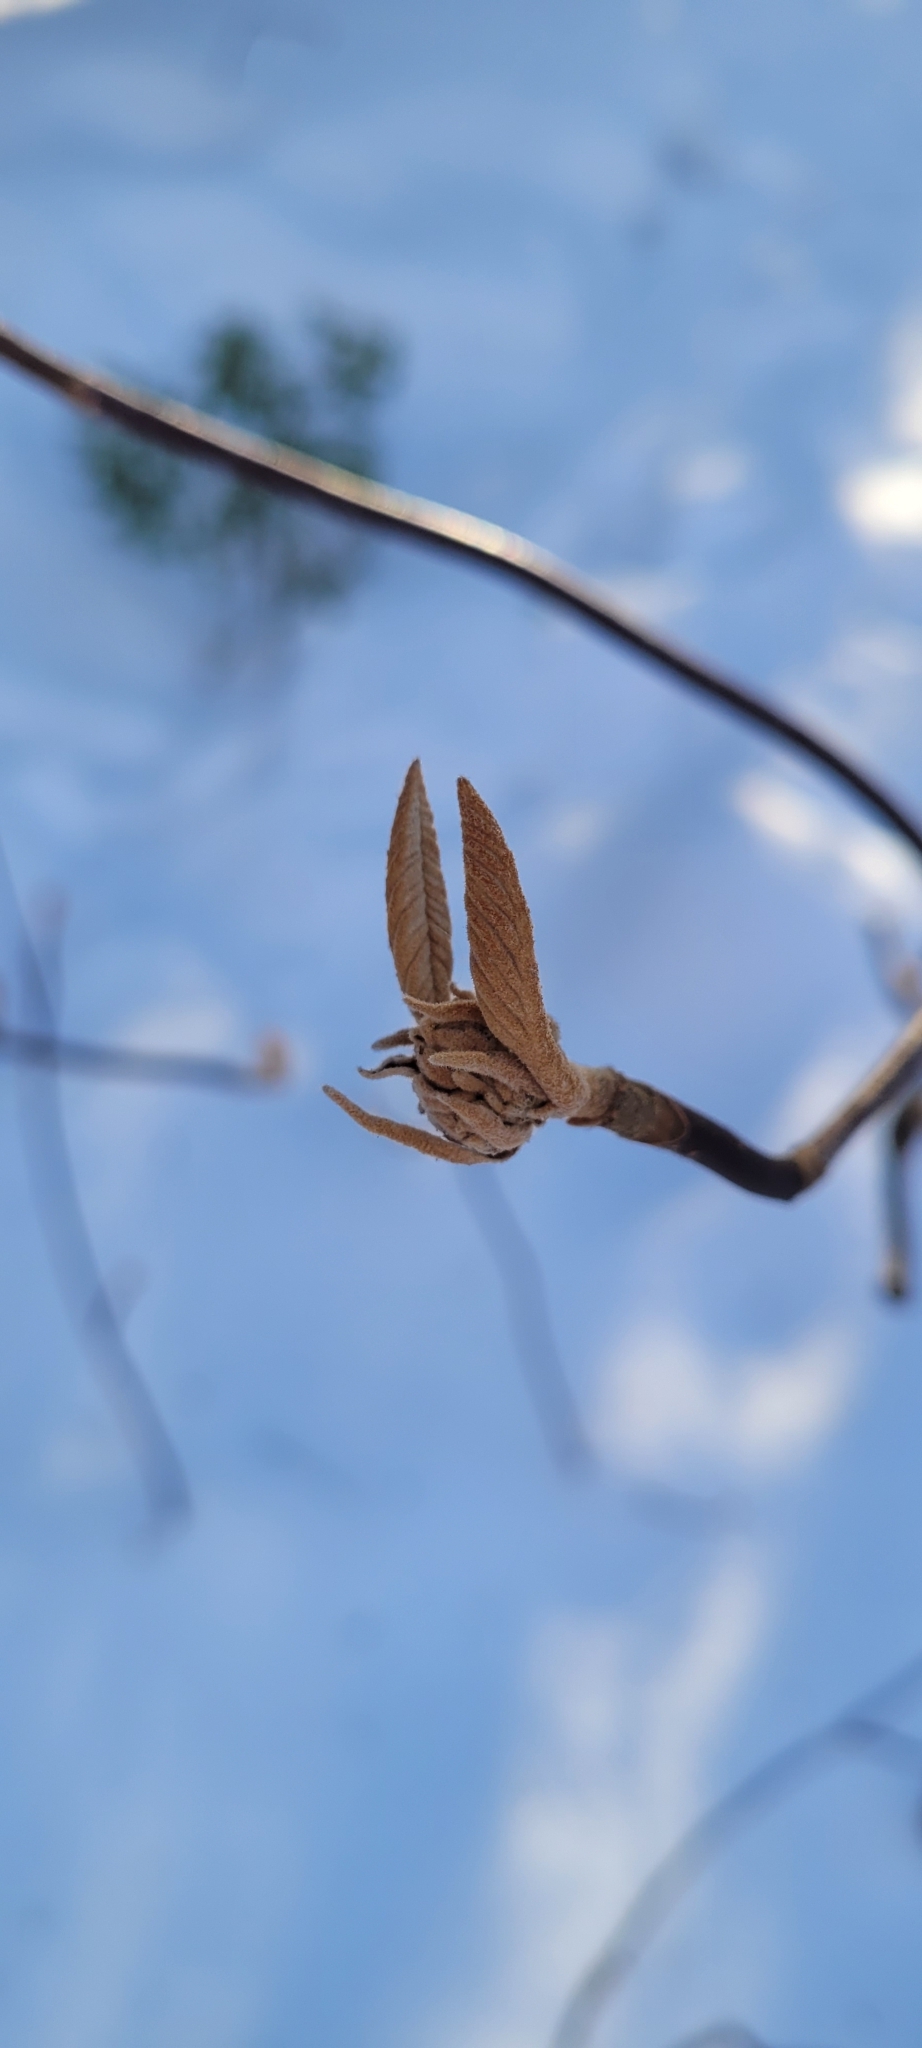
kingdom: Plantae
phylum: Tracheophyta
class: Magnoliopsida
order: Dipsacales
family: Viburnaceae
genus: Viburnum
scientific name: Viburnum lantanoides
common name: Hobblebush
